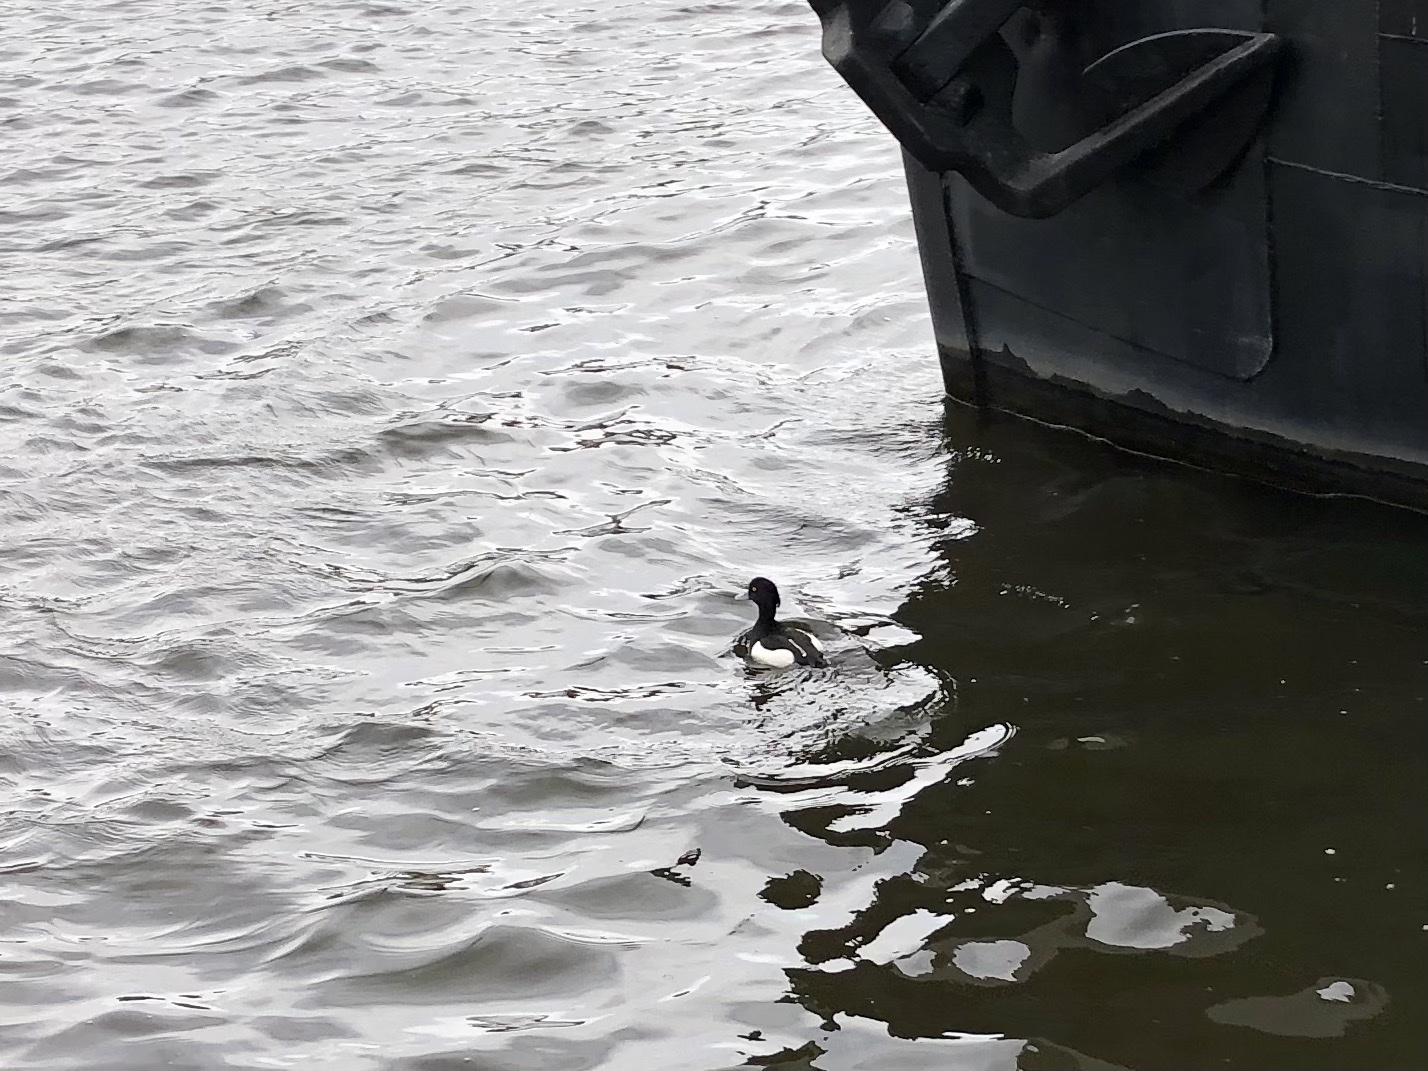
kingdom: Animalia
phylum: Chordata
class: Aves
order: Anseriformes
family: Anatidae
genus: Aythya
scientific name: Aythya fuligula
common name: Tufted duck
